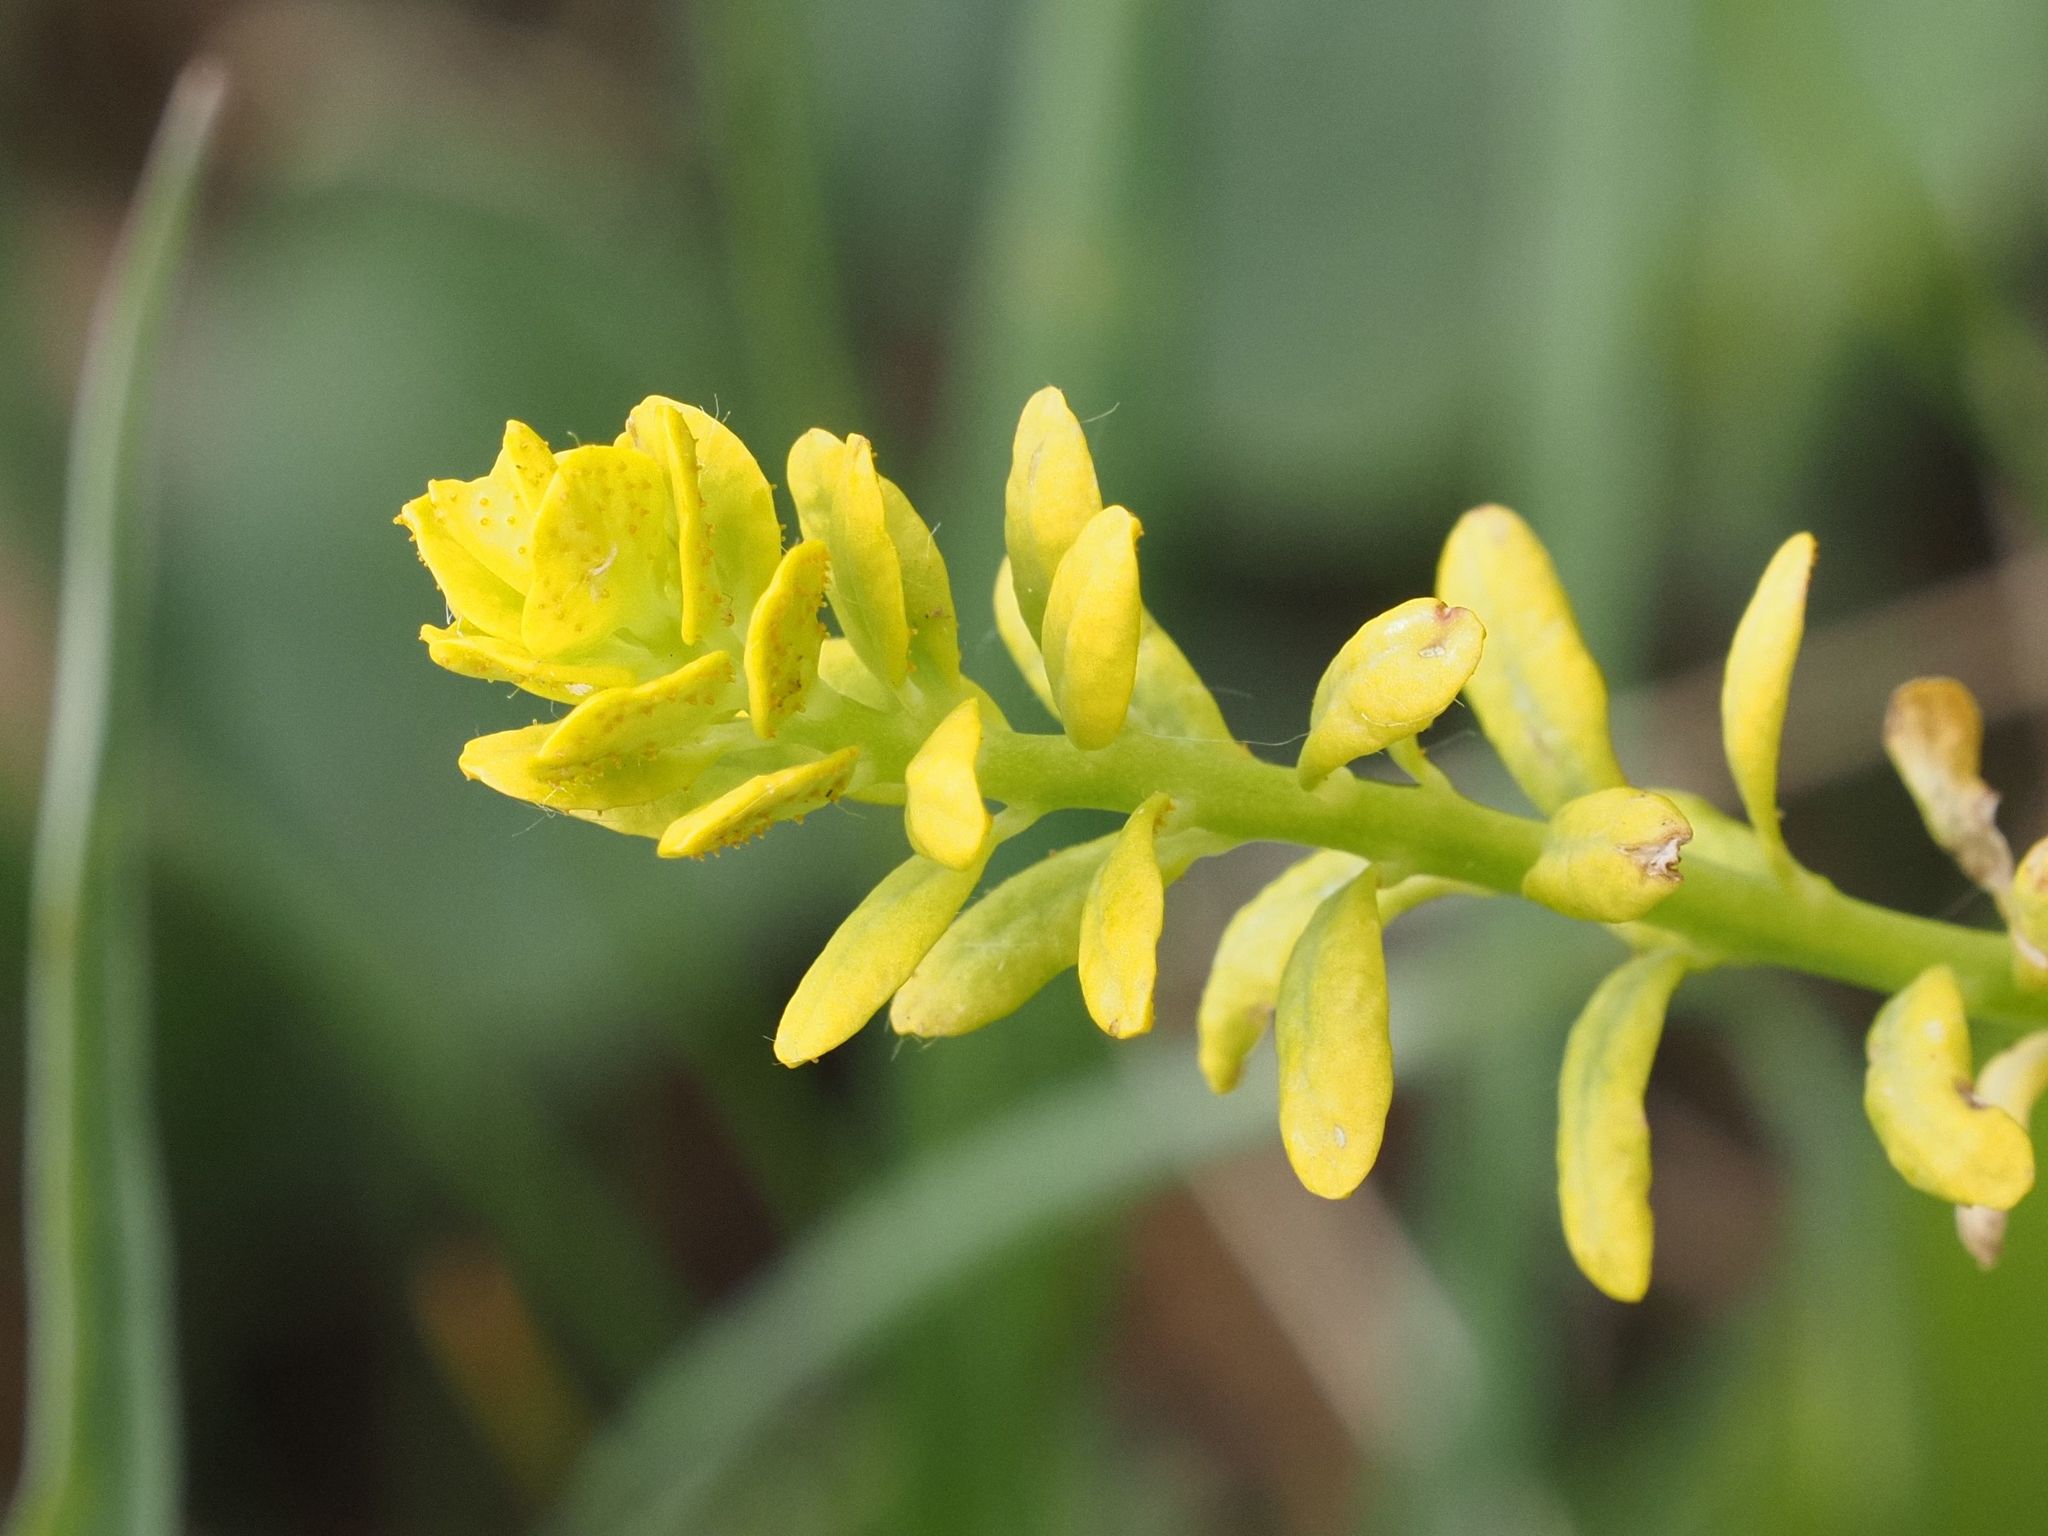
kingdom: Plantae
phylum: Tracheophyta
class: Magnoliopsida
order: Malpighiales
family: Euphorbiaceae
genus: Euphorbia
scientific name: Euphorbia cyparissias
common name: Cypress spurge
